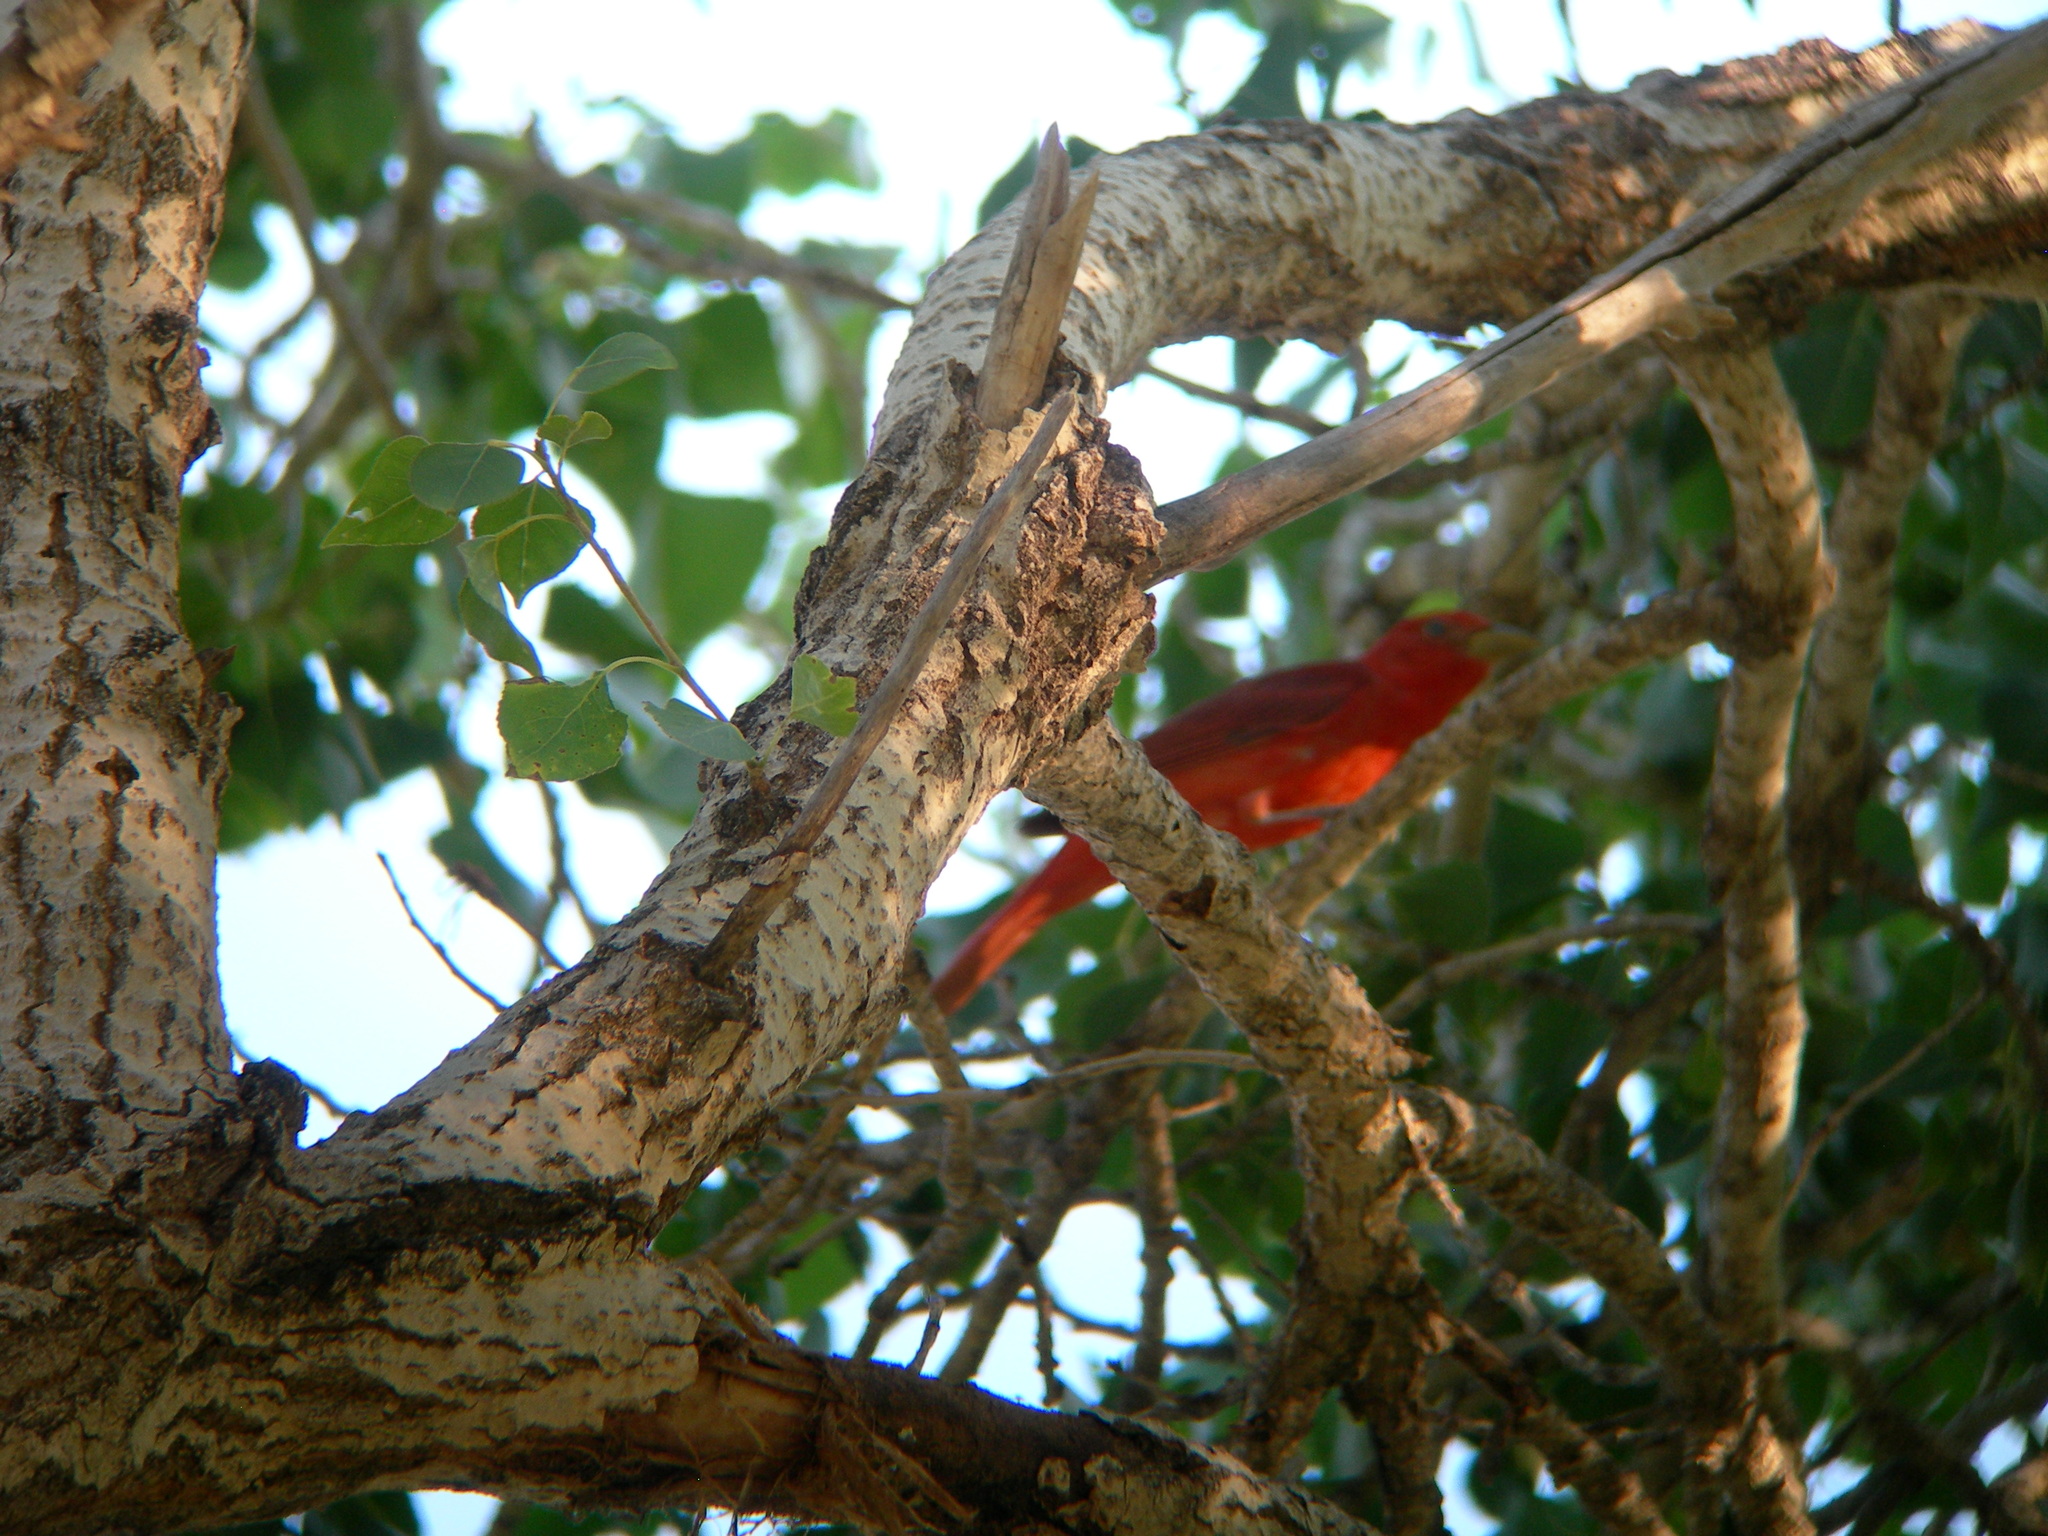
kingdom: Animalia
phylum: Chordata
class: Aves
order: Passeriformes
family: Cardinalidae
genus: Piranga
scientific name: Piranga rubra
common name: Summer tanager
